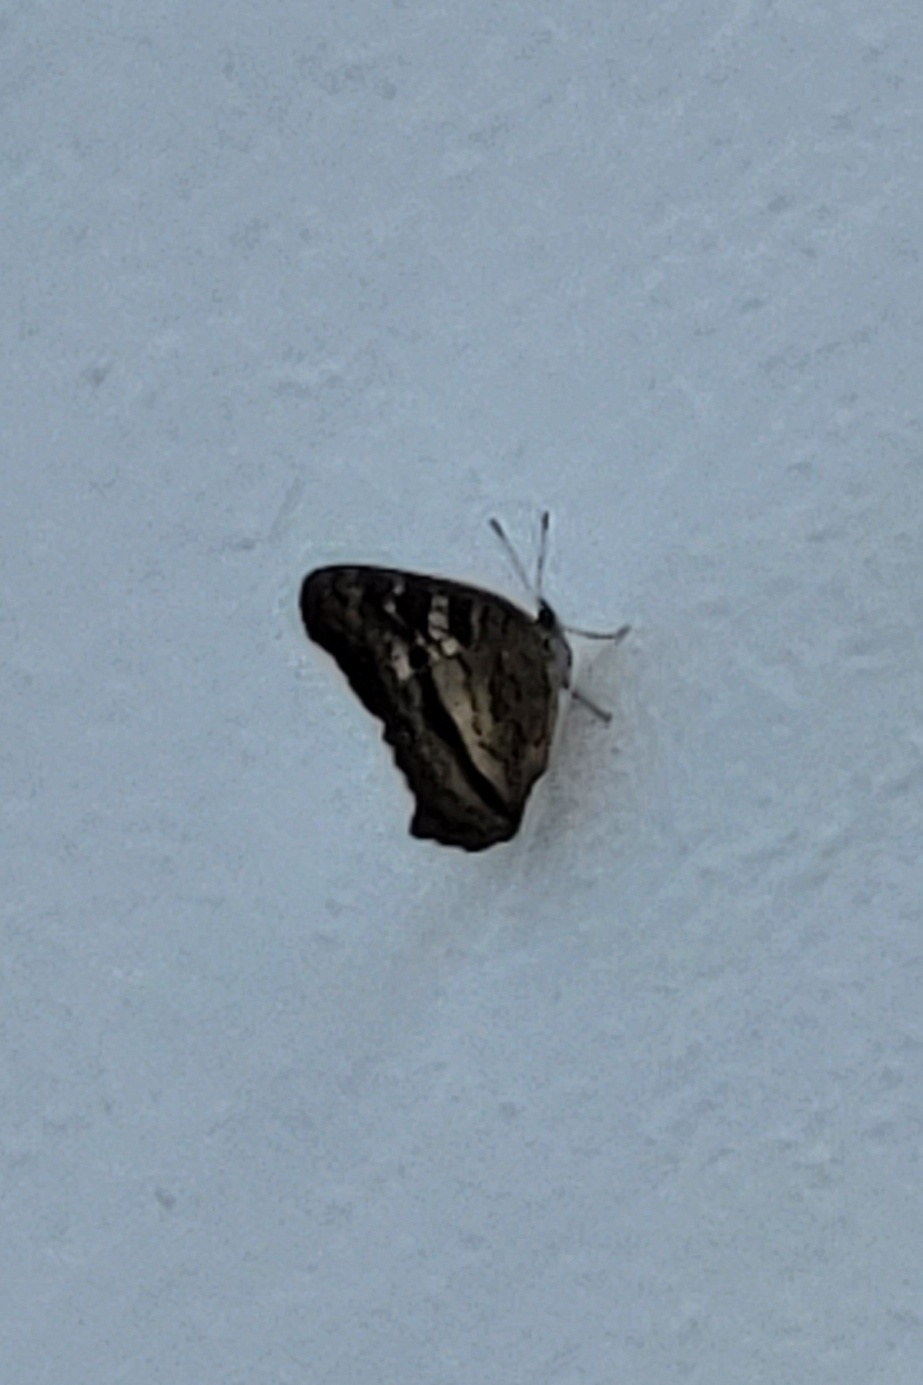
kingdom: Animalia
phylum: Arthropoda
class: Insecta
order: Lepidoptera
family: Nymphalidae
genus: Anartia
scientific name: Anartia jatrophae
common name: White peacock
